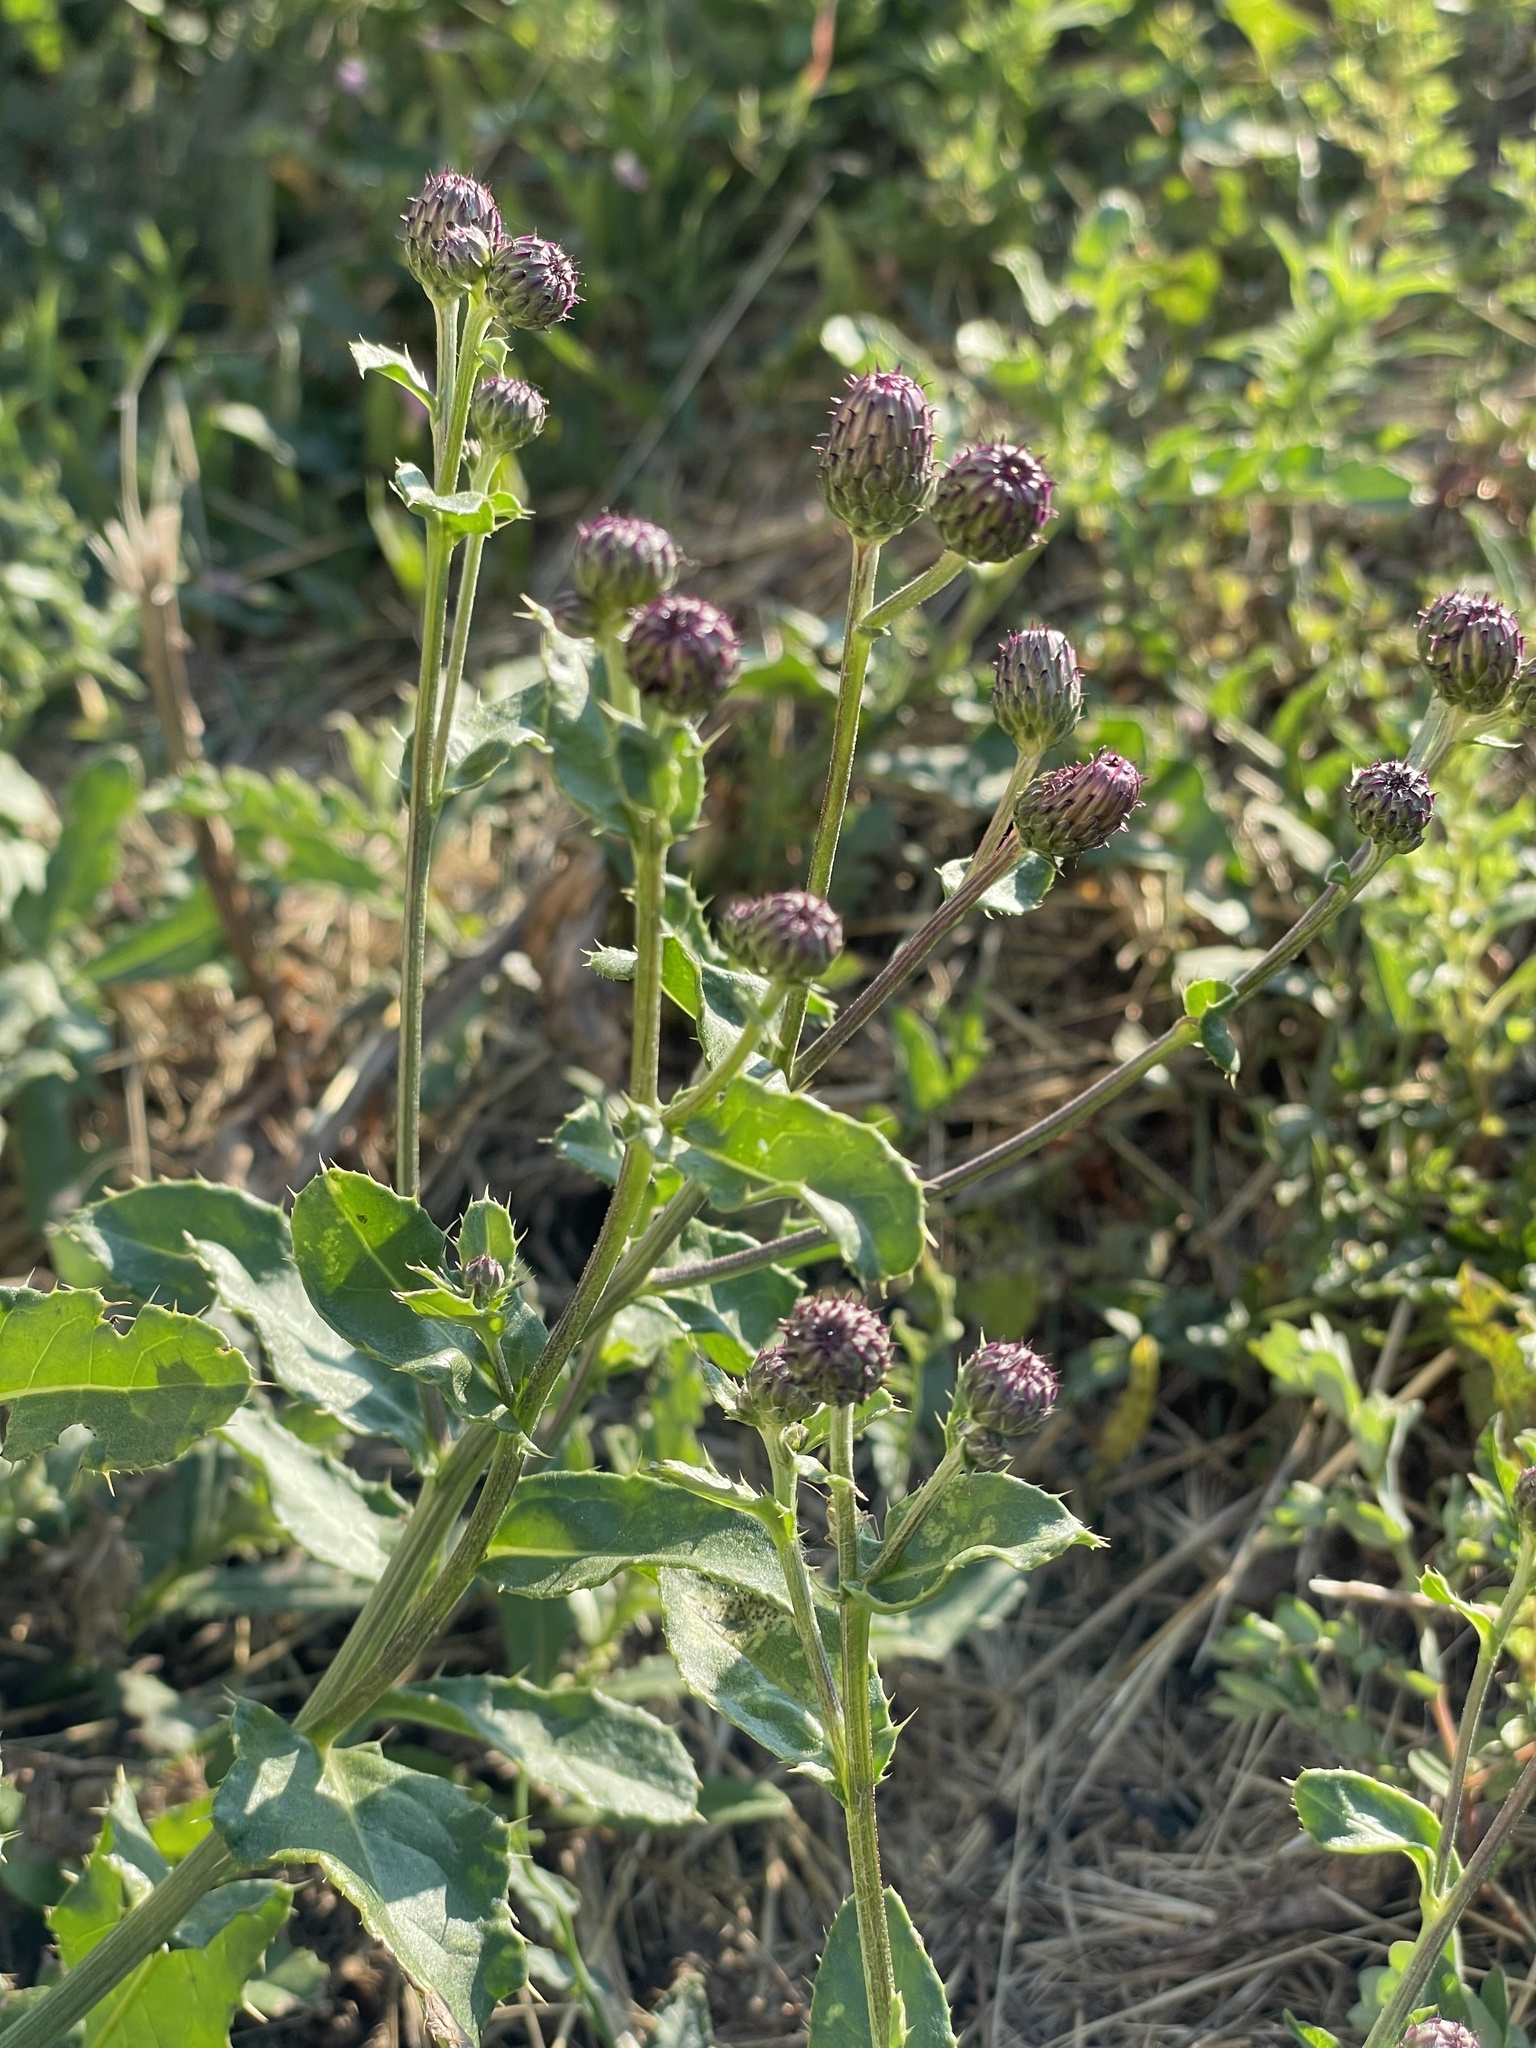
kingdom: Plantae
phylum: Tracheophyta
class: Magnoliopsida
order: Asterales
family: Asteraceae
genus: Cirsium
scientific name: Cirsium arvense
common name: Creeping thistle
